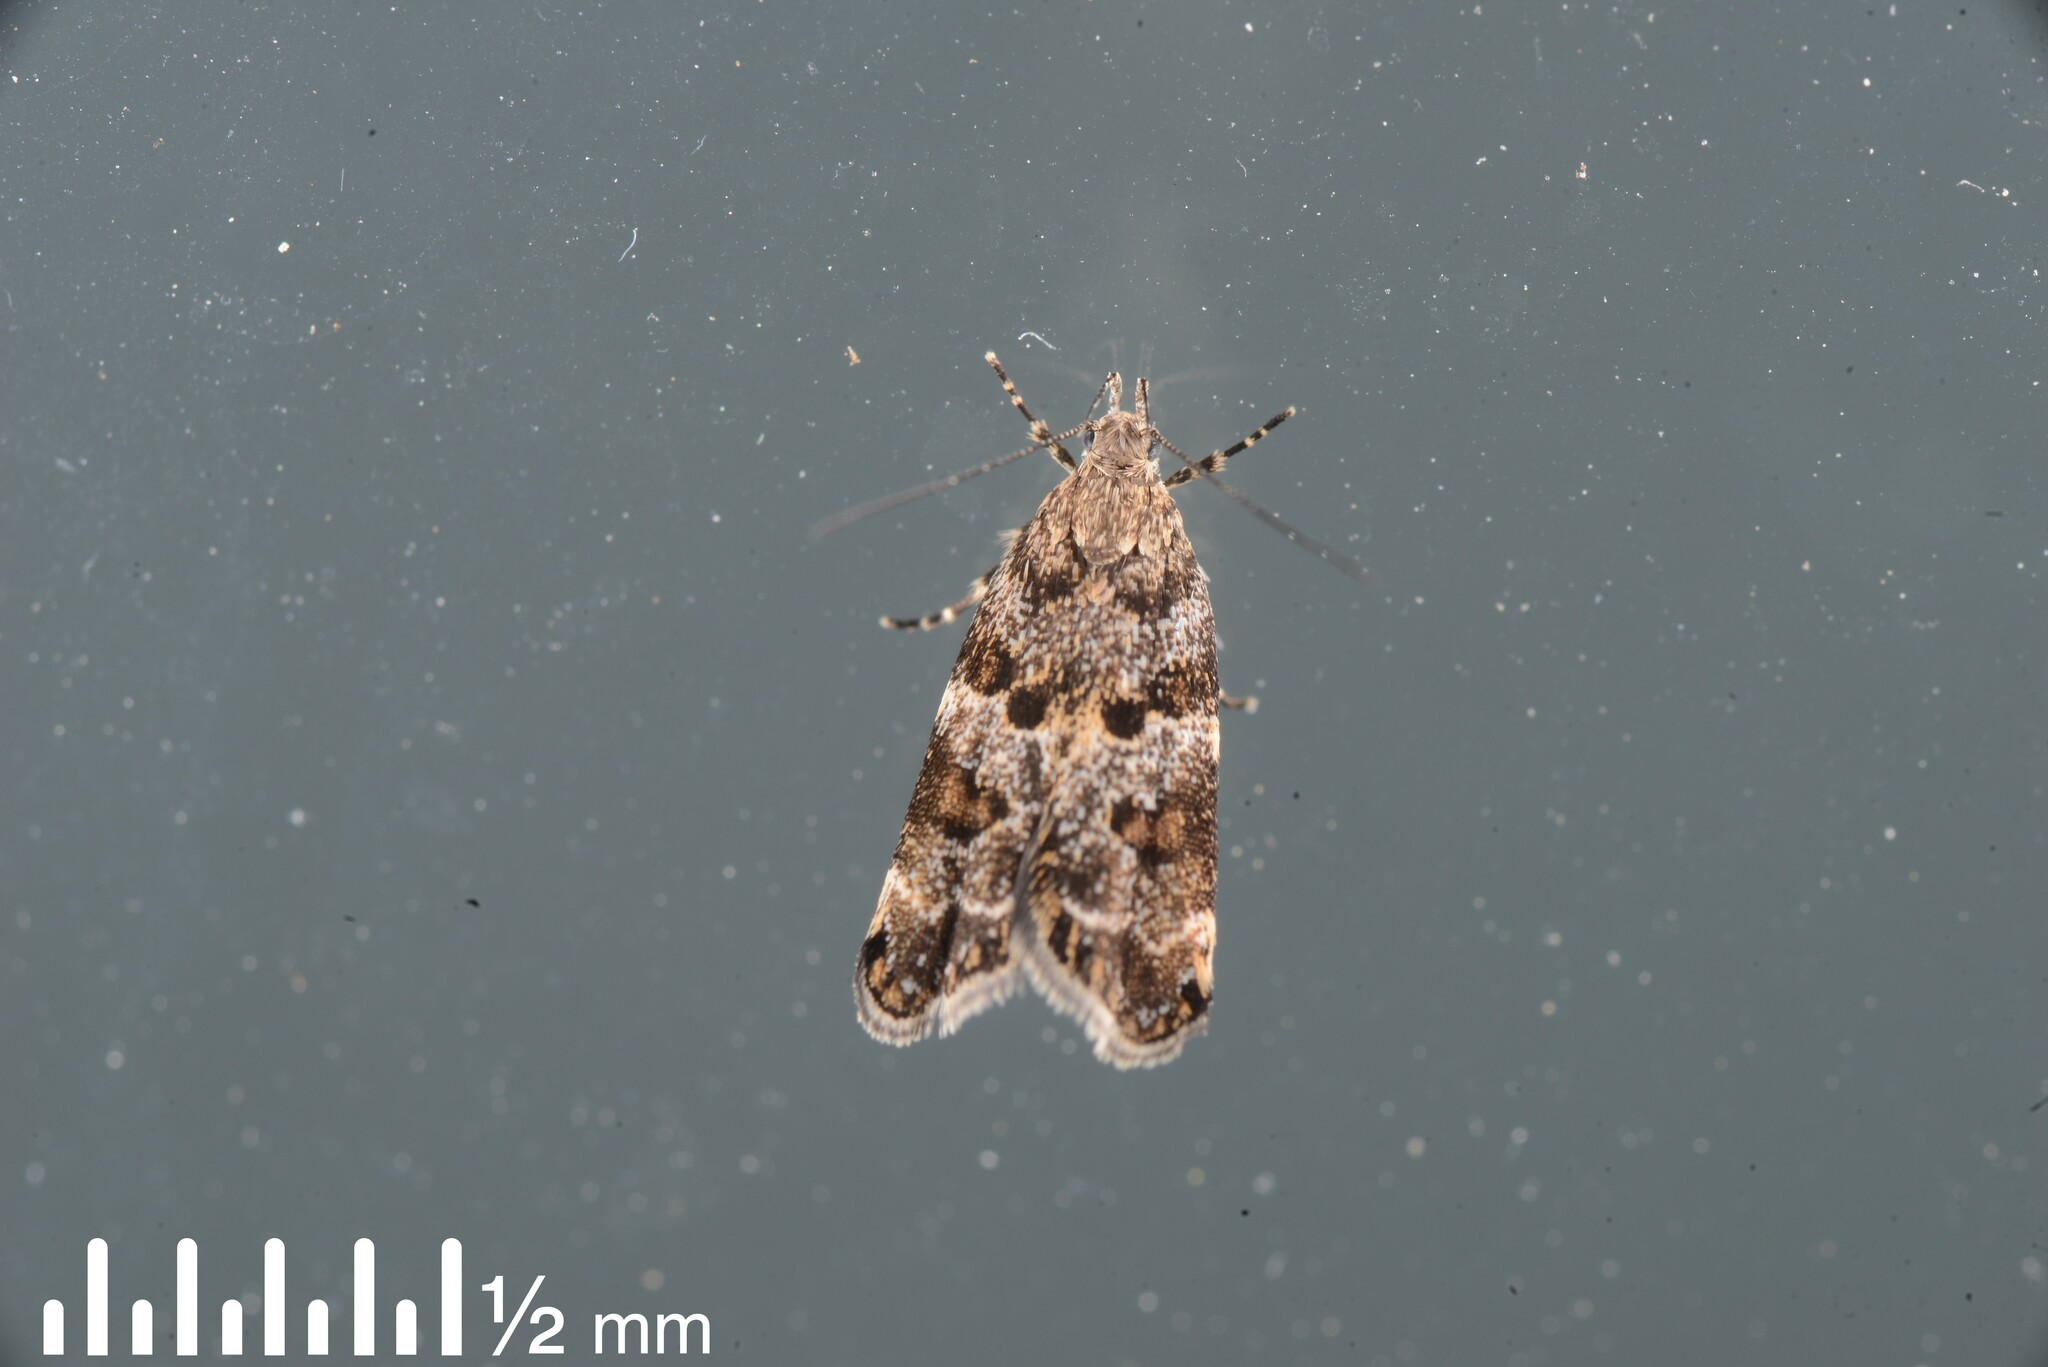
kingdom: Animalia
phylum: Arthropoda
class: Insecta
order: Lepidoptera
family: Oecophoridae
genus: Gymnobathra
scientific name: Gymnobathra omphalota
